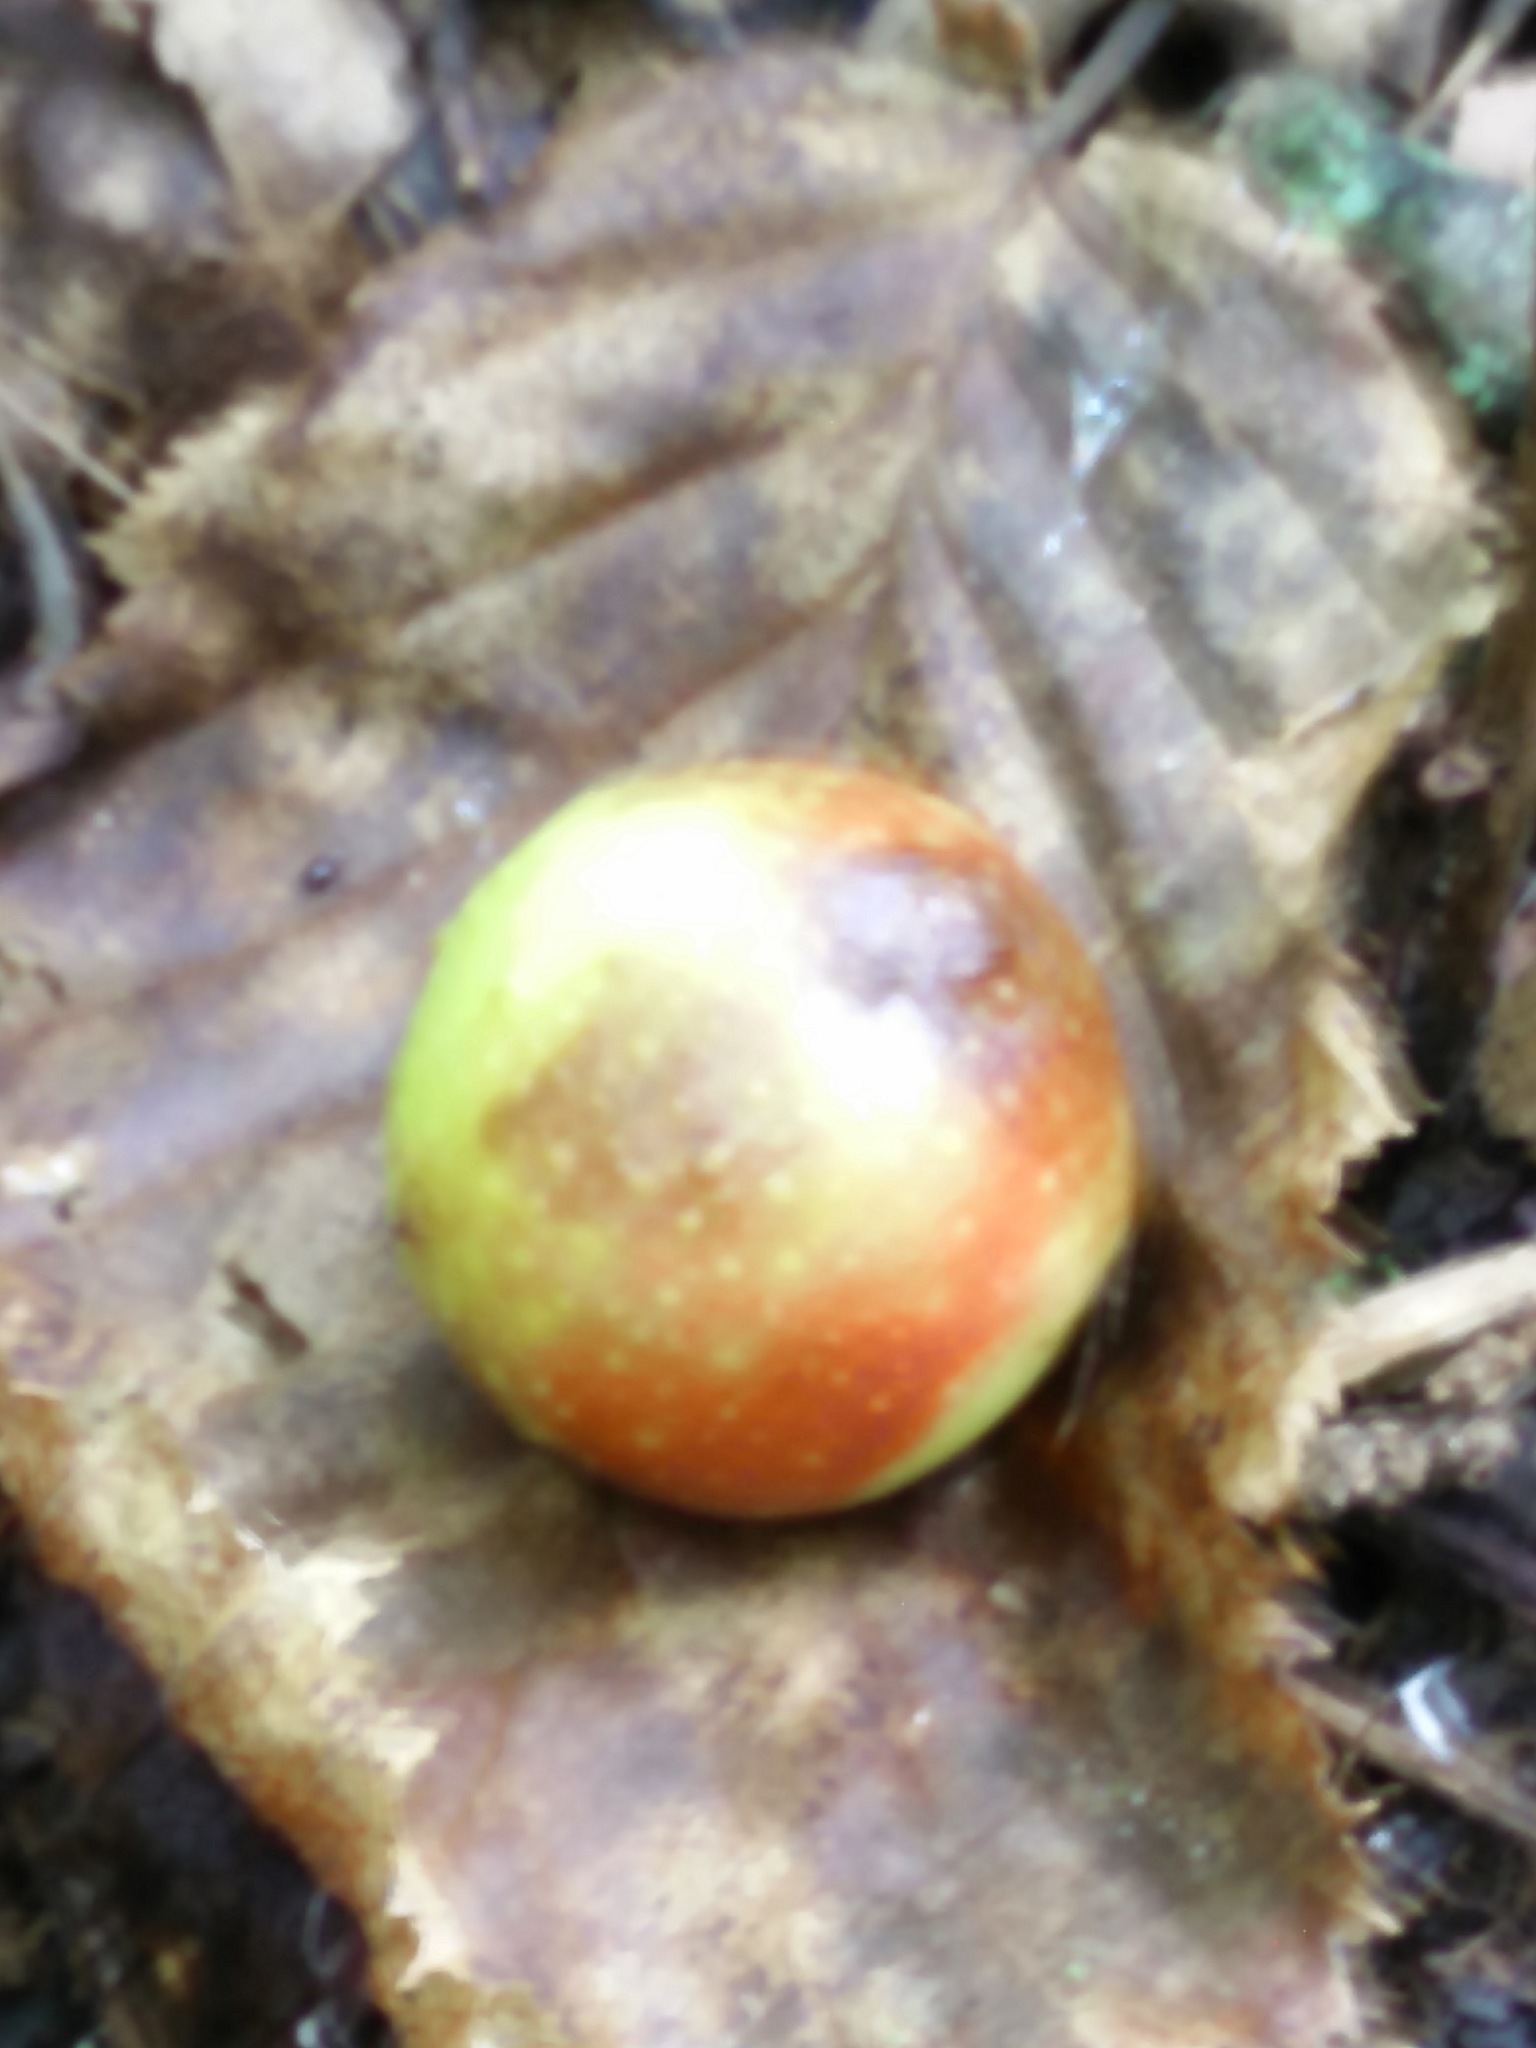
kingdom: Animalia
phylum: Arthropoda
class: Insecta
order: Hymenoptera
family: Cynipidae
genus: Cynips
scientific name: Cynips quercusfolii
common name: Cherry gall
